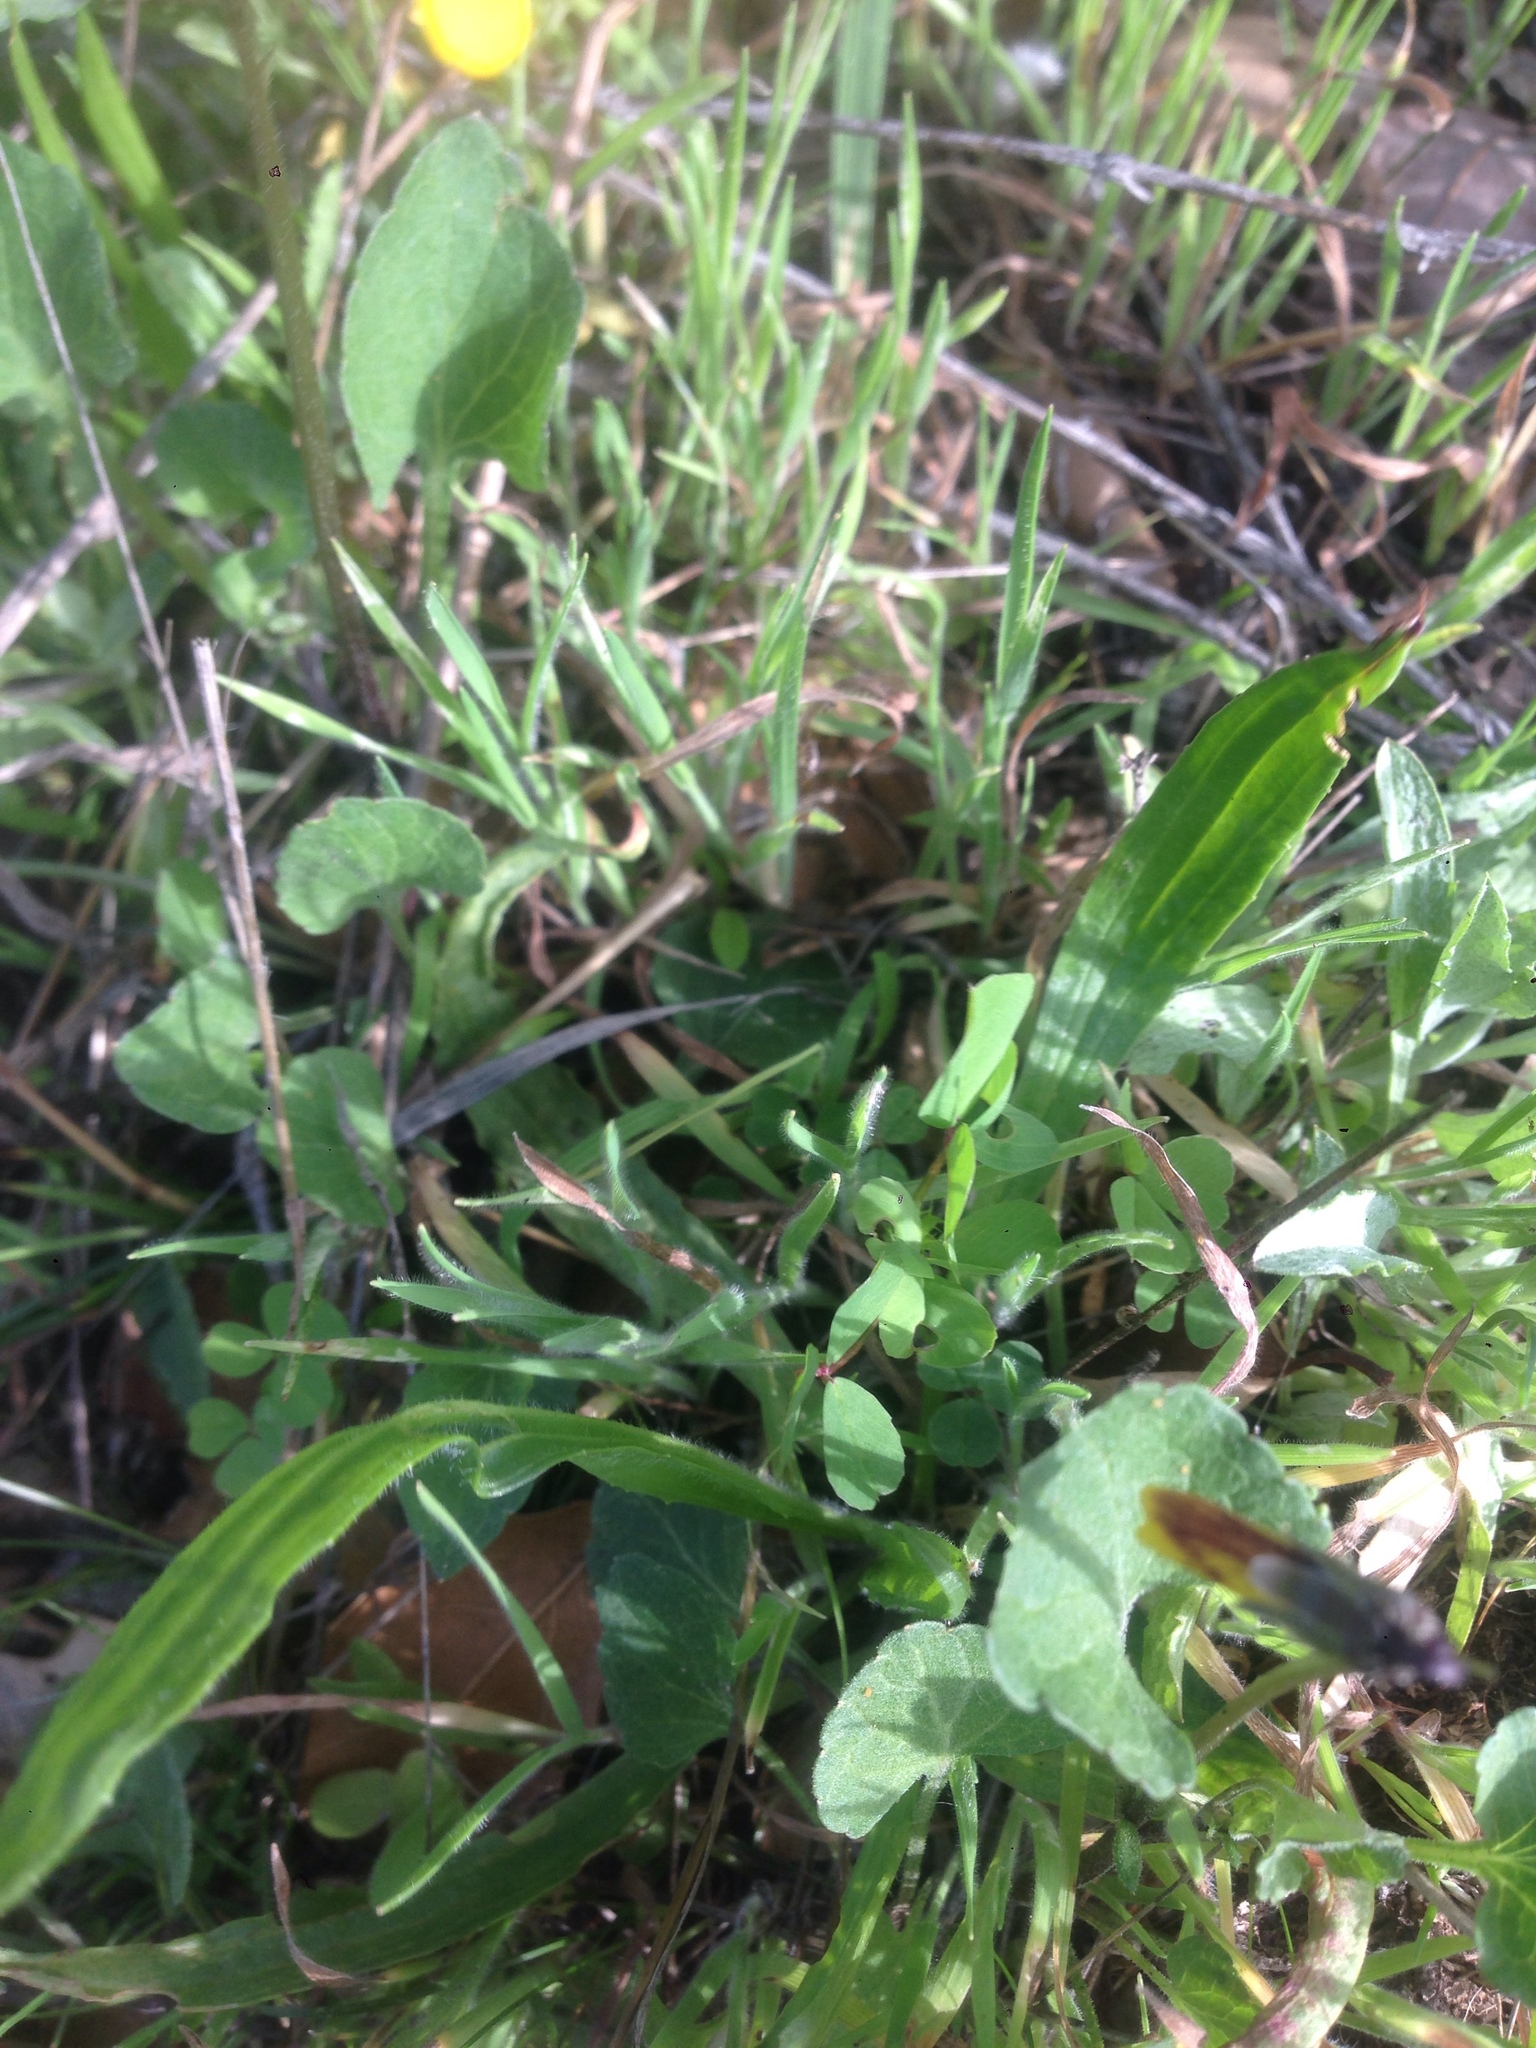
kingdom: Plantae
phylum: Tracheophyta
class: Magnoliopsida
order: Malpighiales
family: Violaceae
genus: Viola
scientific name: Viola pedunculata
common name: California golden violet
